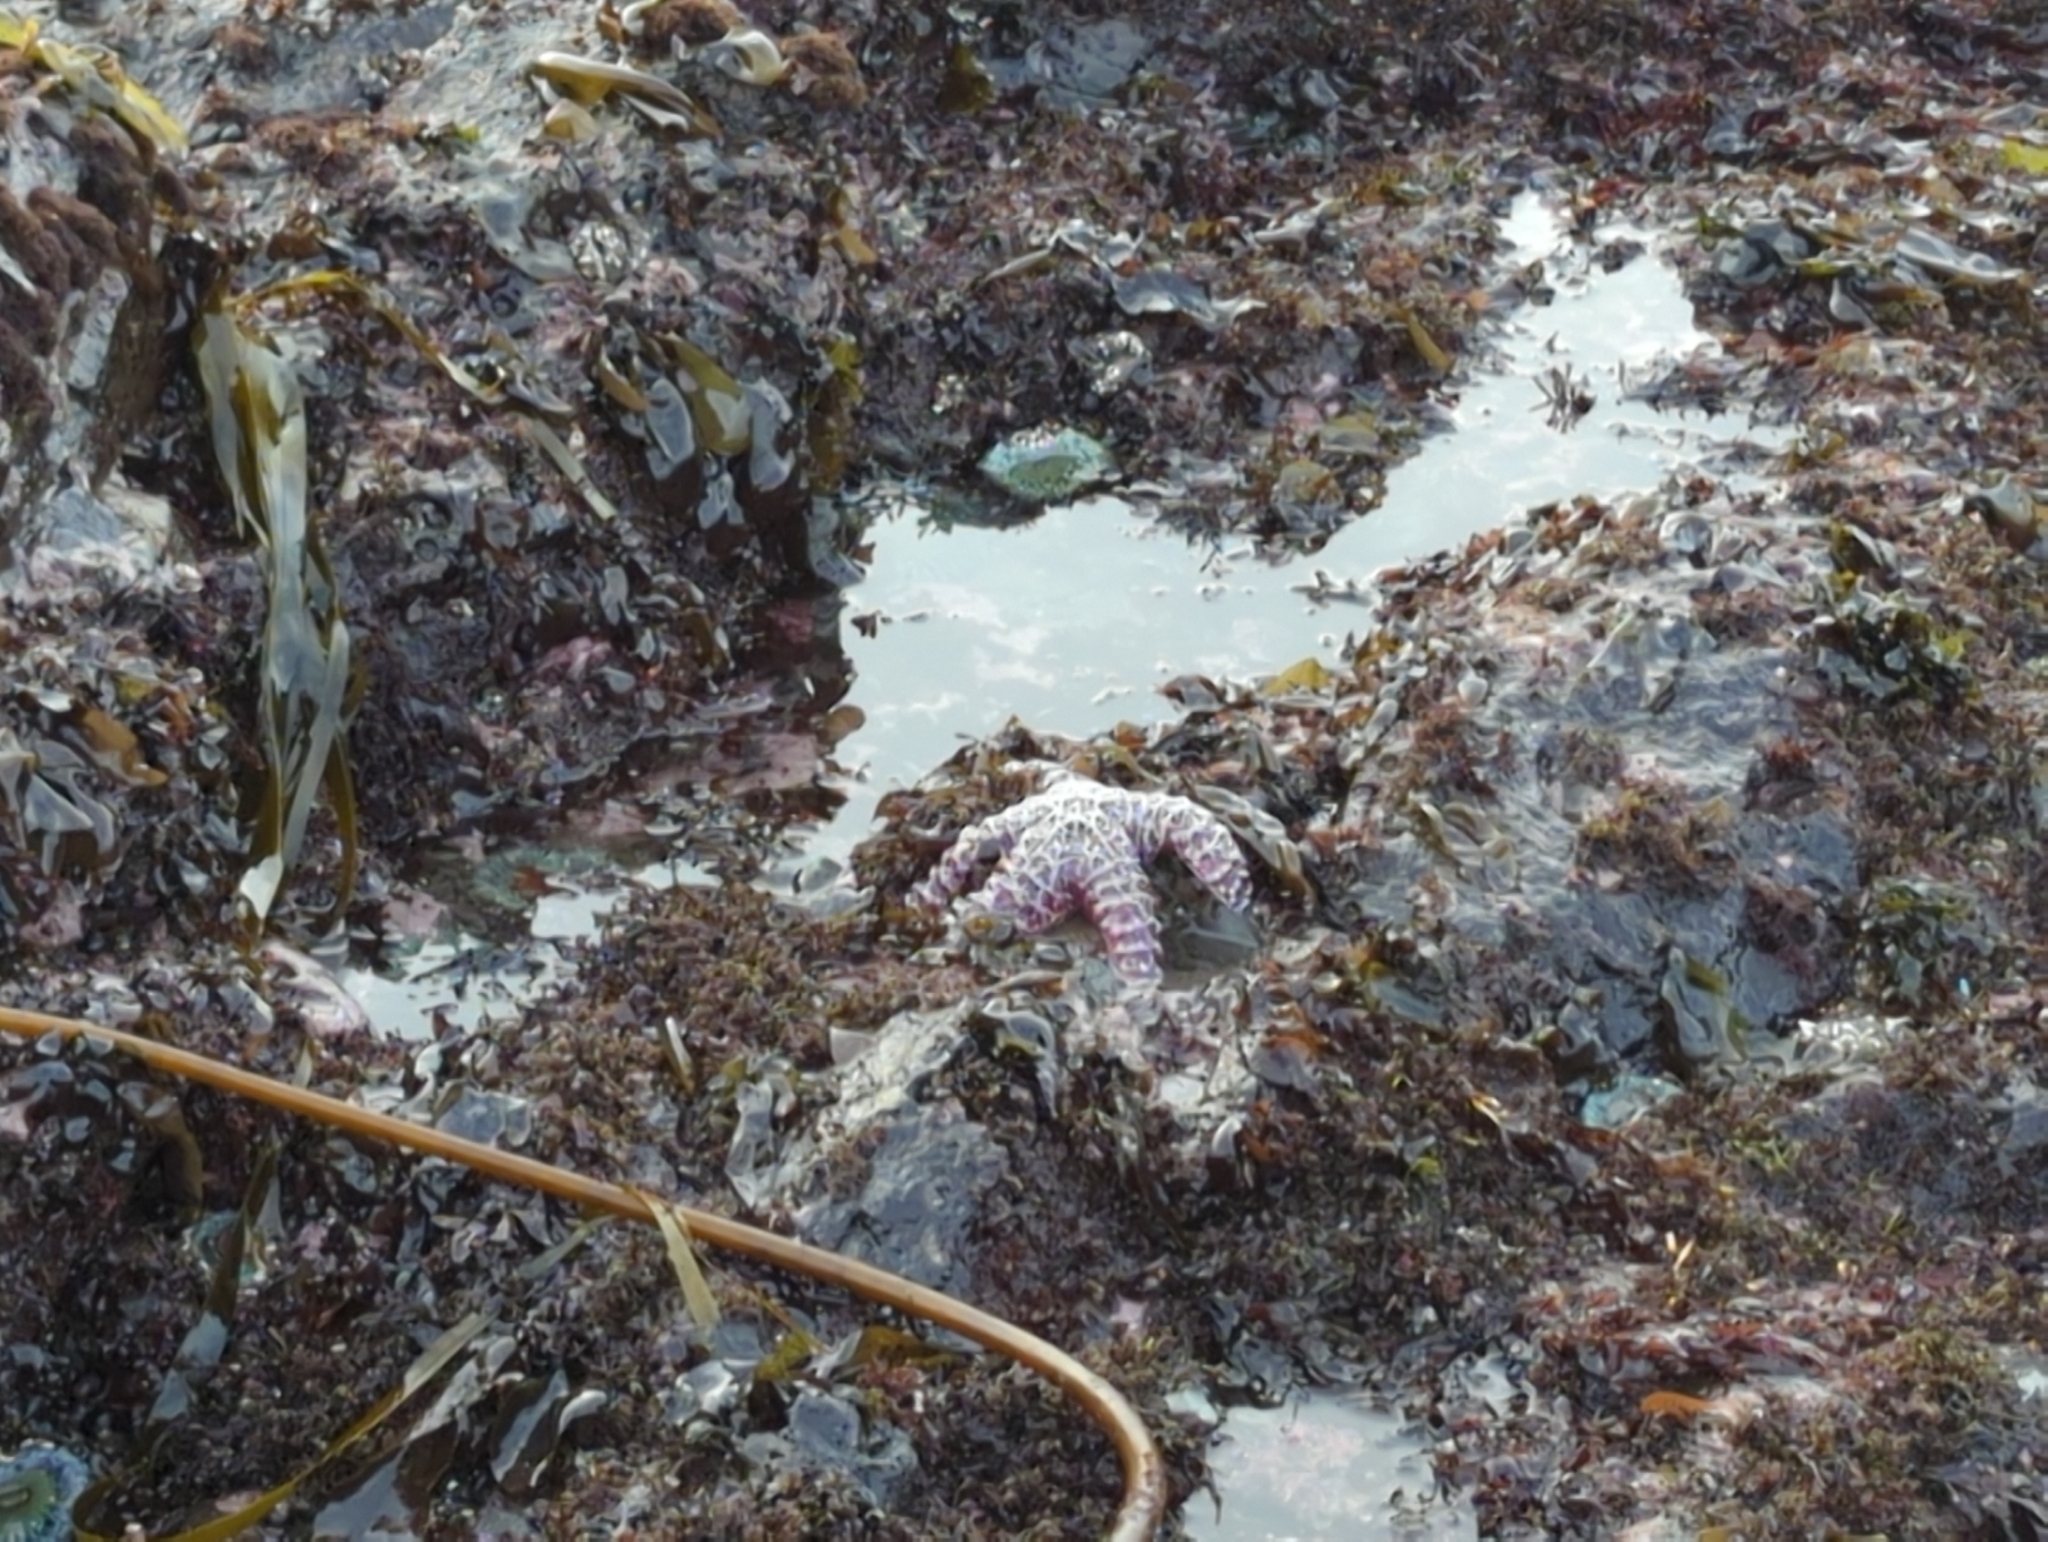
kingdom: Animalia
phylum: Echinodermata
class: Asteroidea
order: Forcipulatida
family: Asteriidae
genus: Pisaster
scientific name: Pisaster ochraceus
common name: Ochre stars
